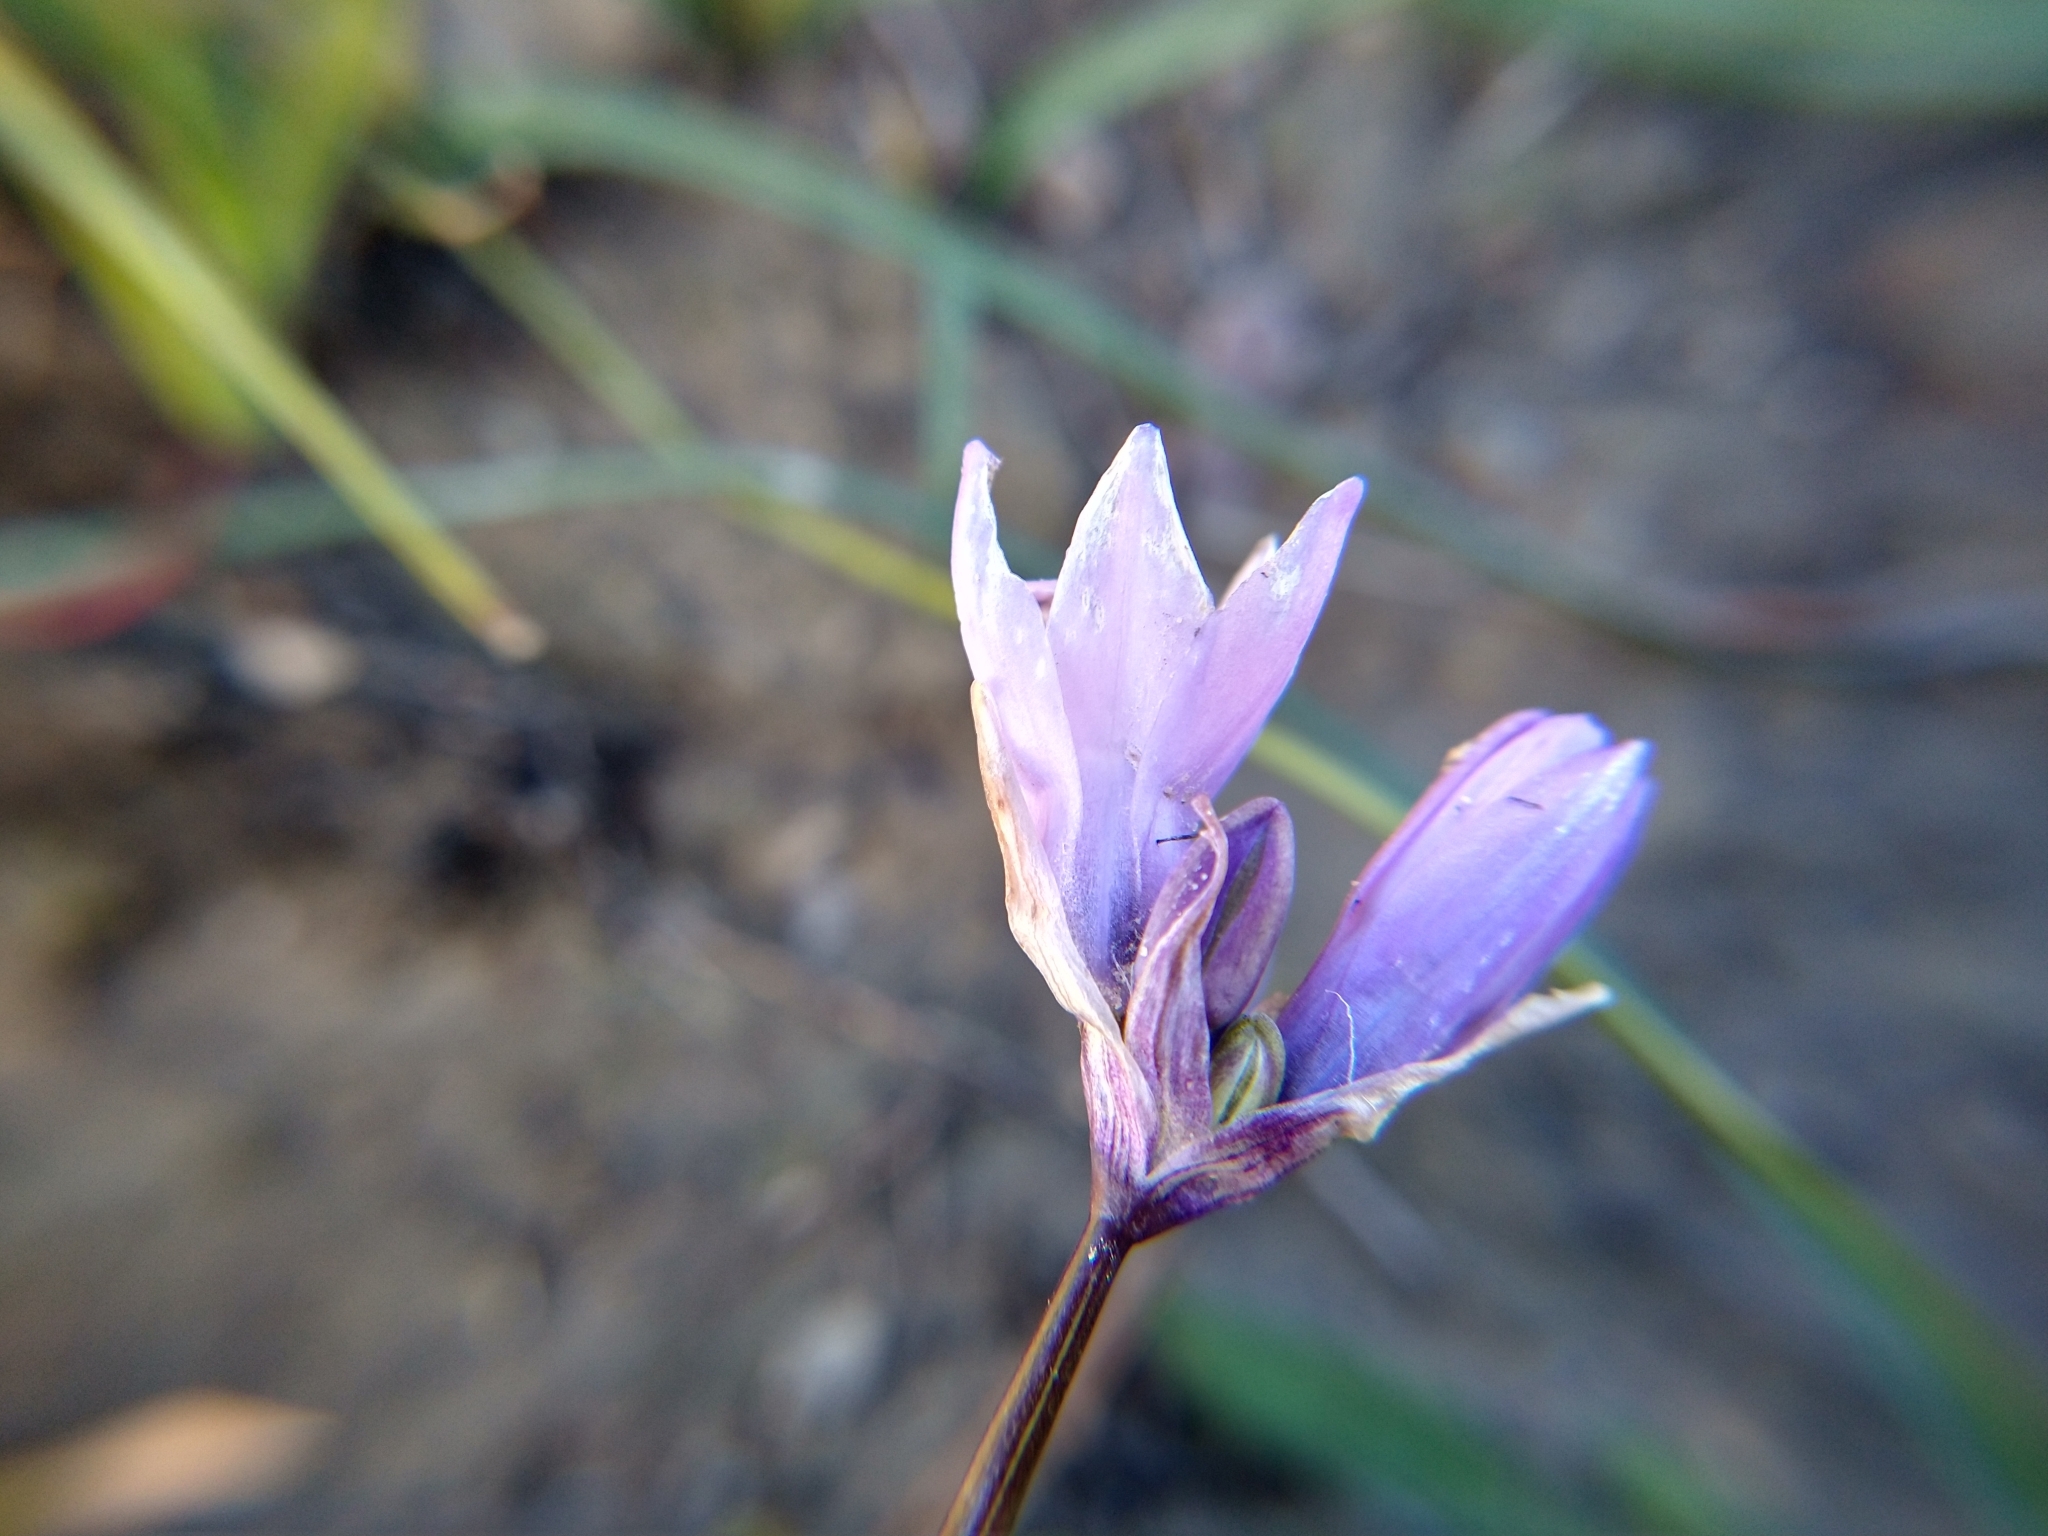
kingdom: Plantae
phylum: Tracheophyta
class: Liliopsida
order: Asparagales
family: Asparagaceae
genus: Dipterostemon
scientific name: Dipterostemon capitatus
